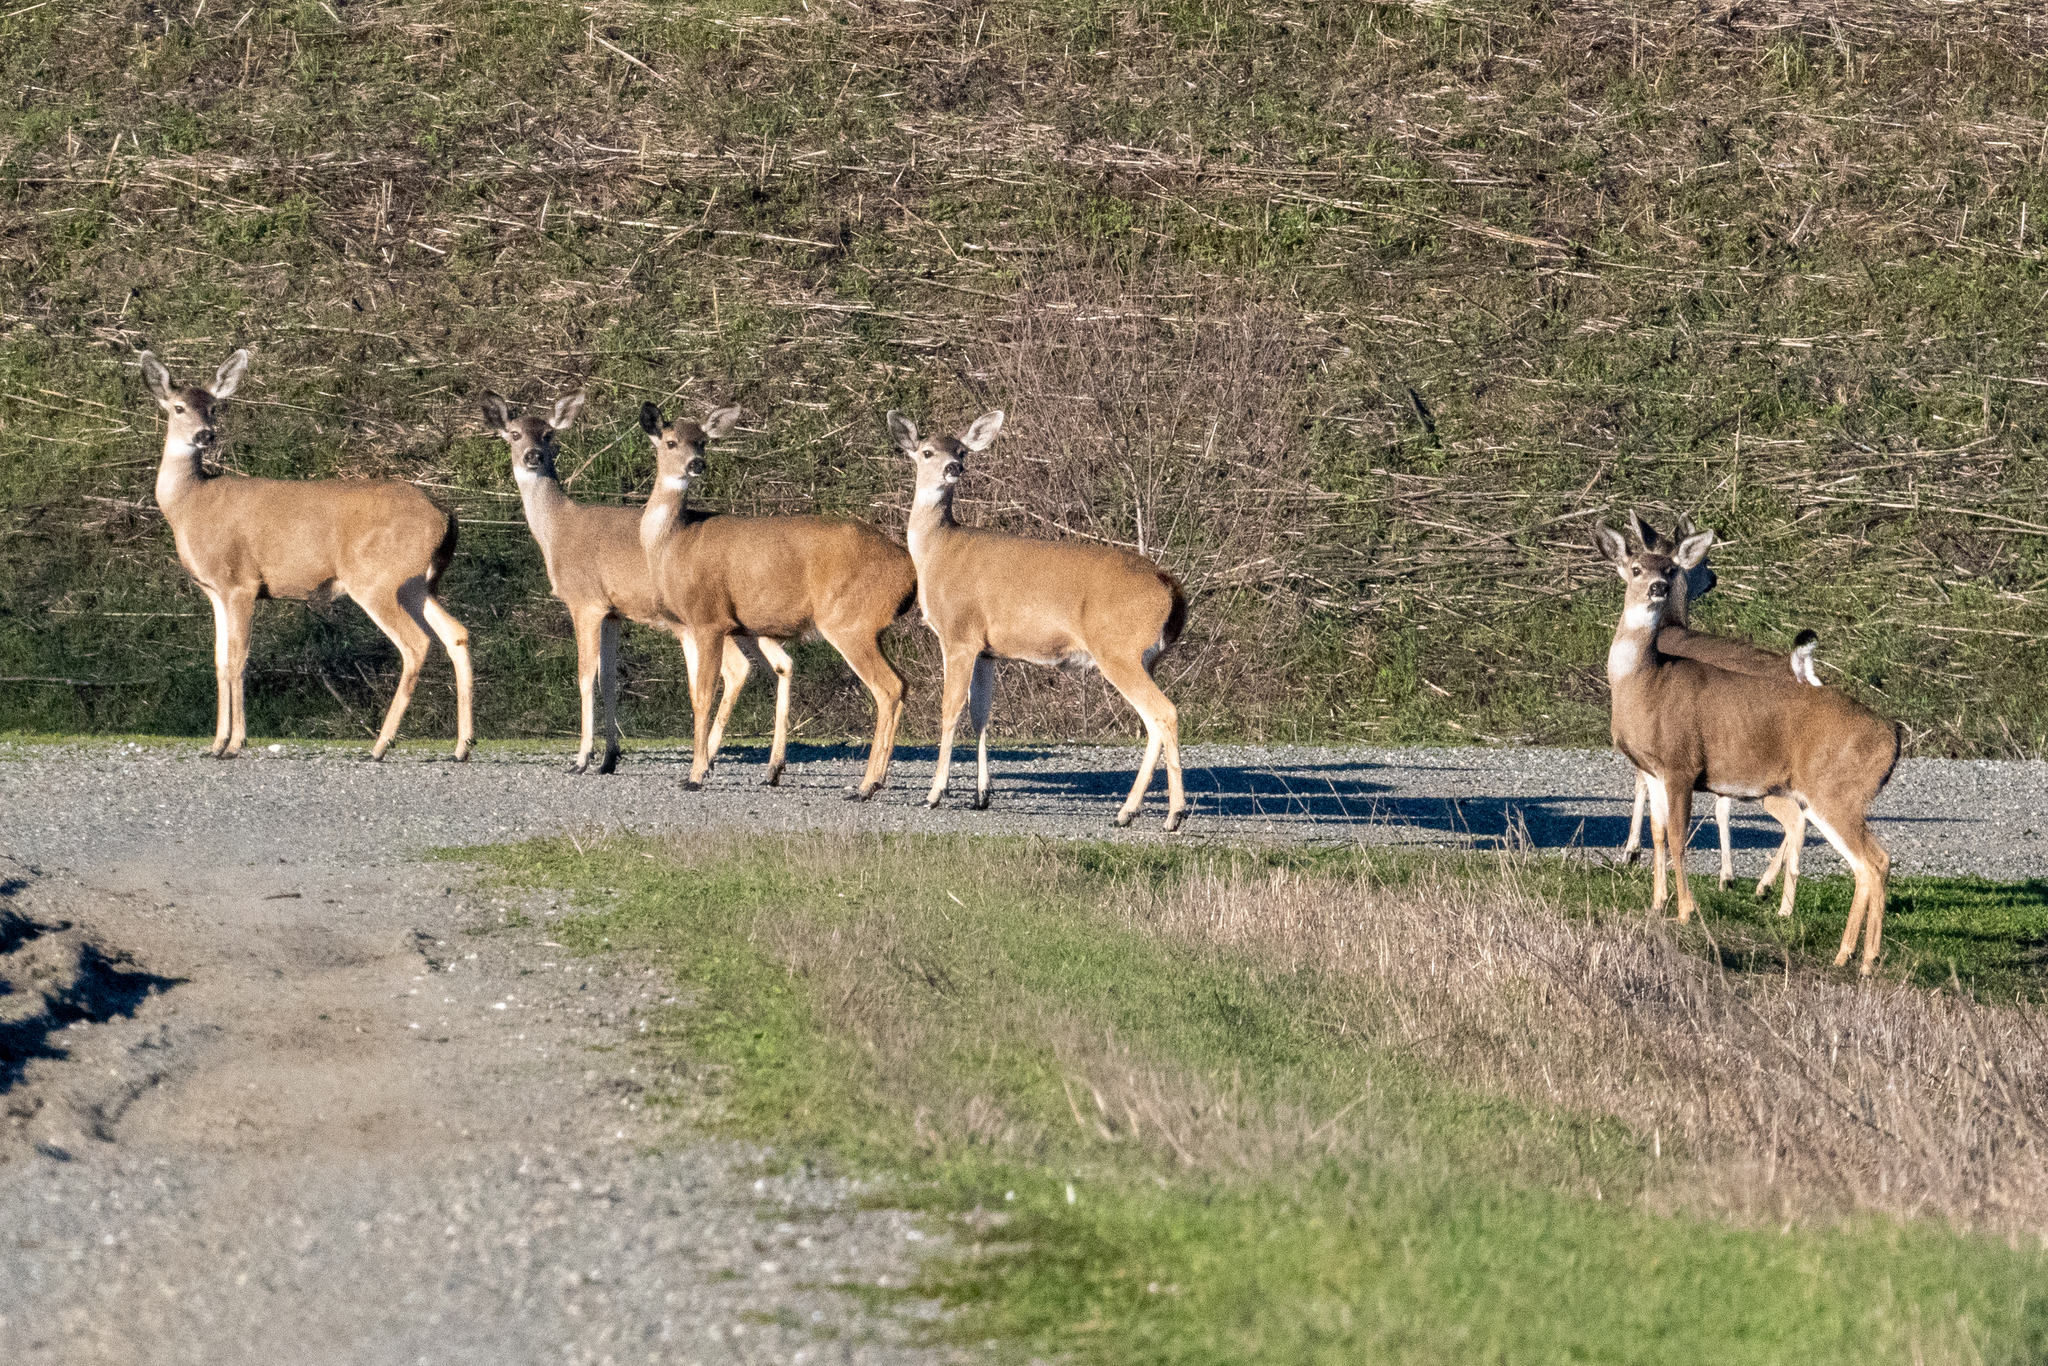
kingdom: Animalia
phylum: Chordata
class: Mammalia
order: Artiodactyla
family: Cervidae
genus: Odocoileus
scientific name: Odocoileus hemionus
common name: Mule deer
